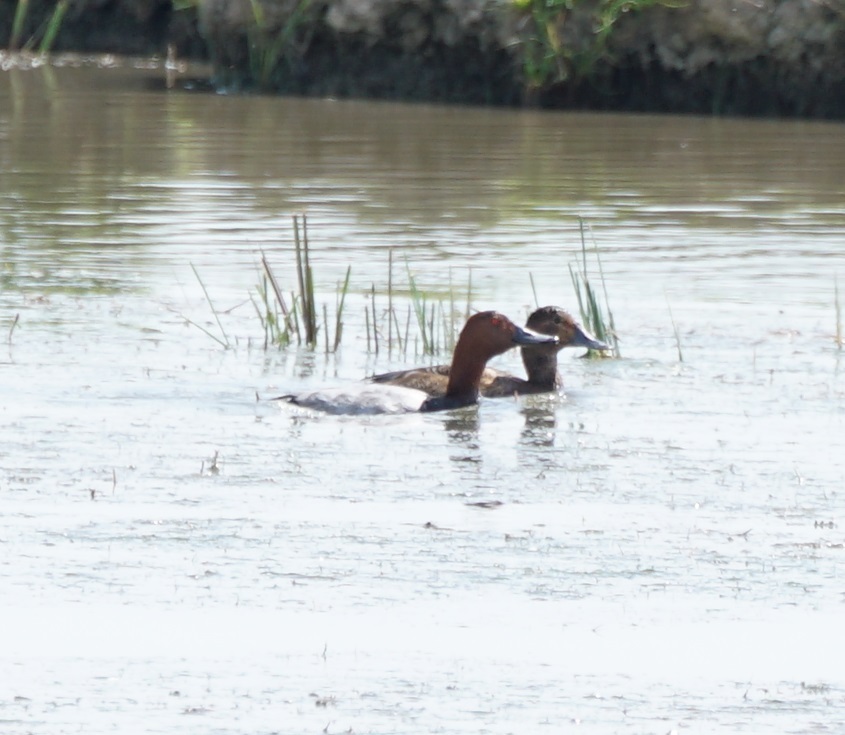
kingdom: Animalia
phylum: Chordata
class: Aves
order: Anseriformes
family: Anatidae
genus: Aythya
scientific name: Aythya ferina
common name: Common pochard
